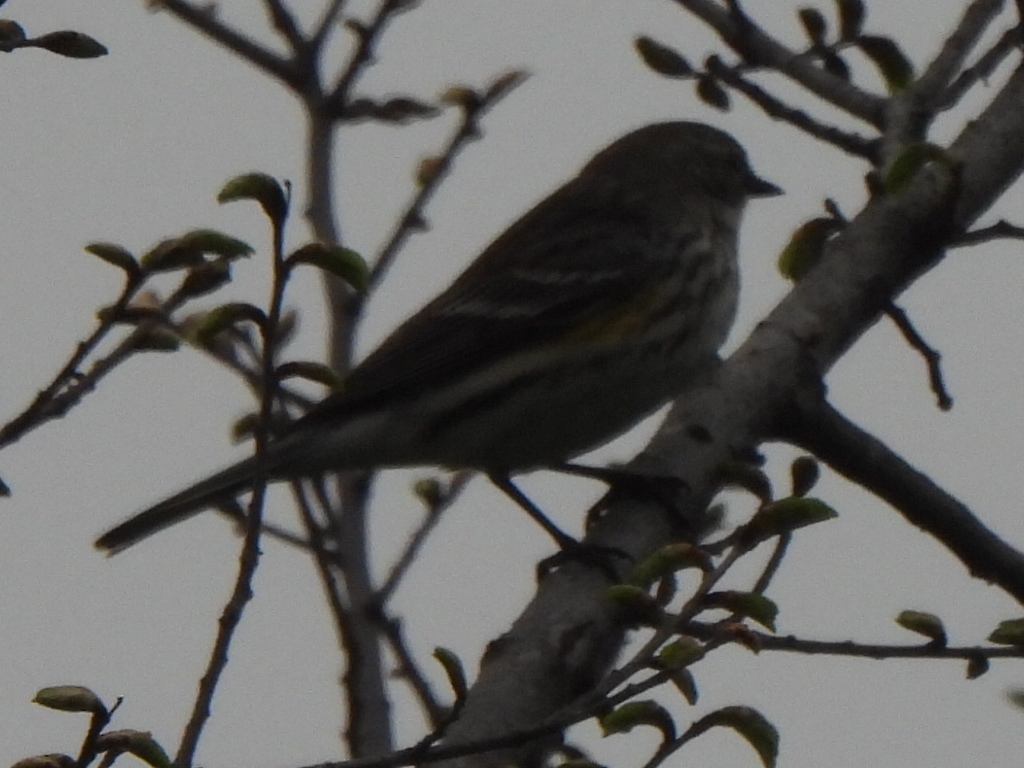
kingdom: Animalia
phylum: Chordata
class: Aves
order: Passeriformes
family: Parulidae
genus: Setophaga
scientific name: Setophaga coronata
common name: Myrtle warbler
